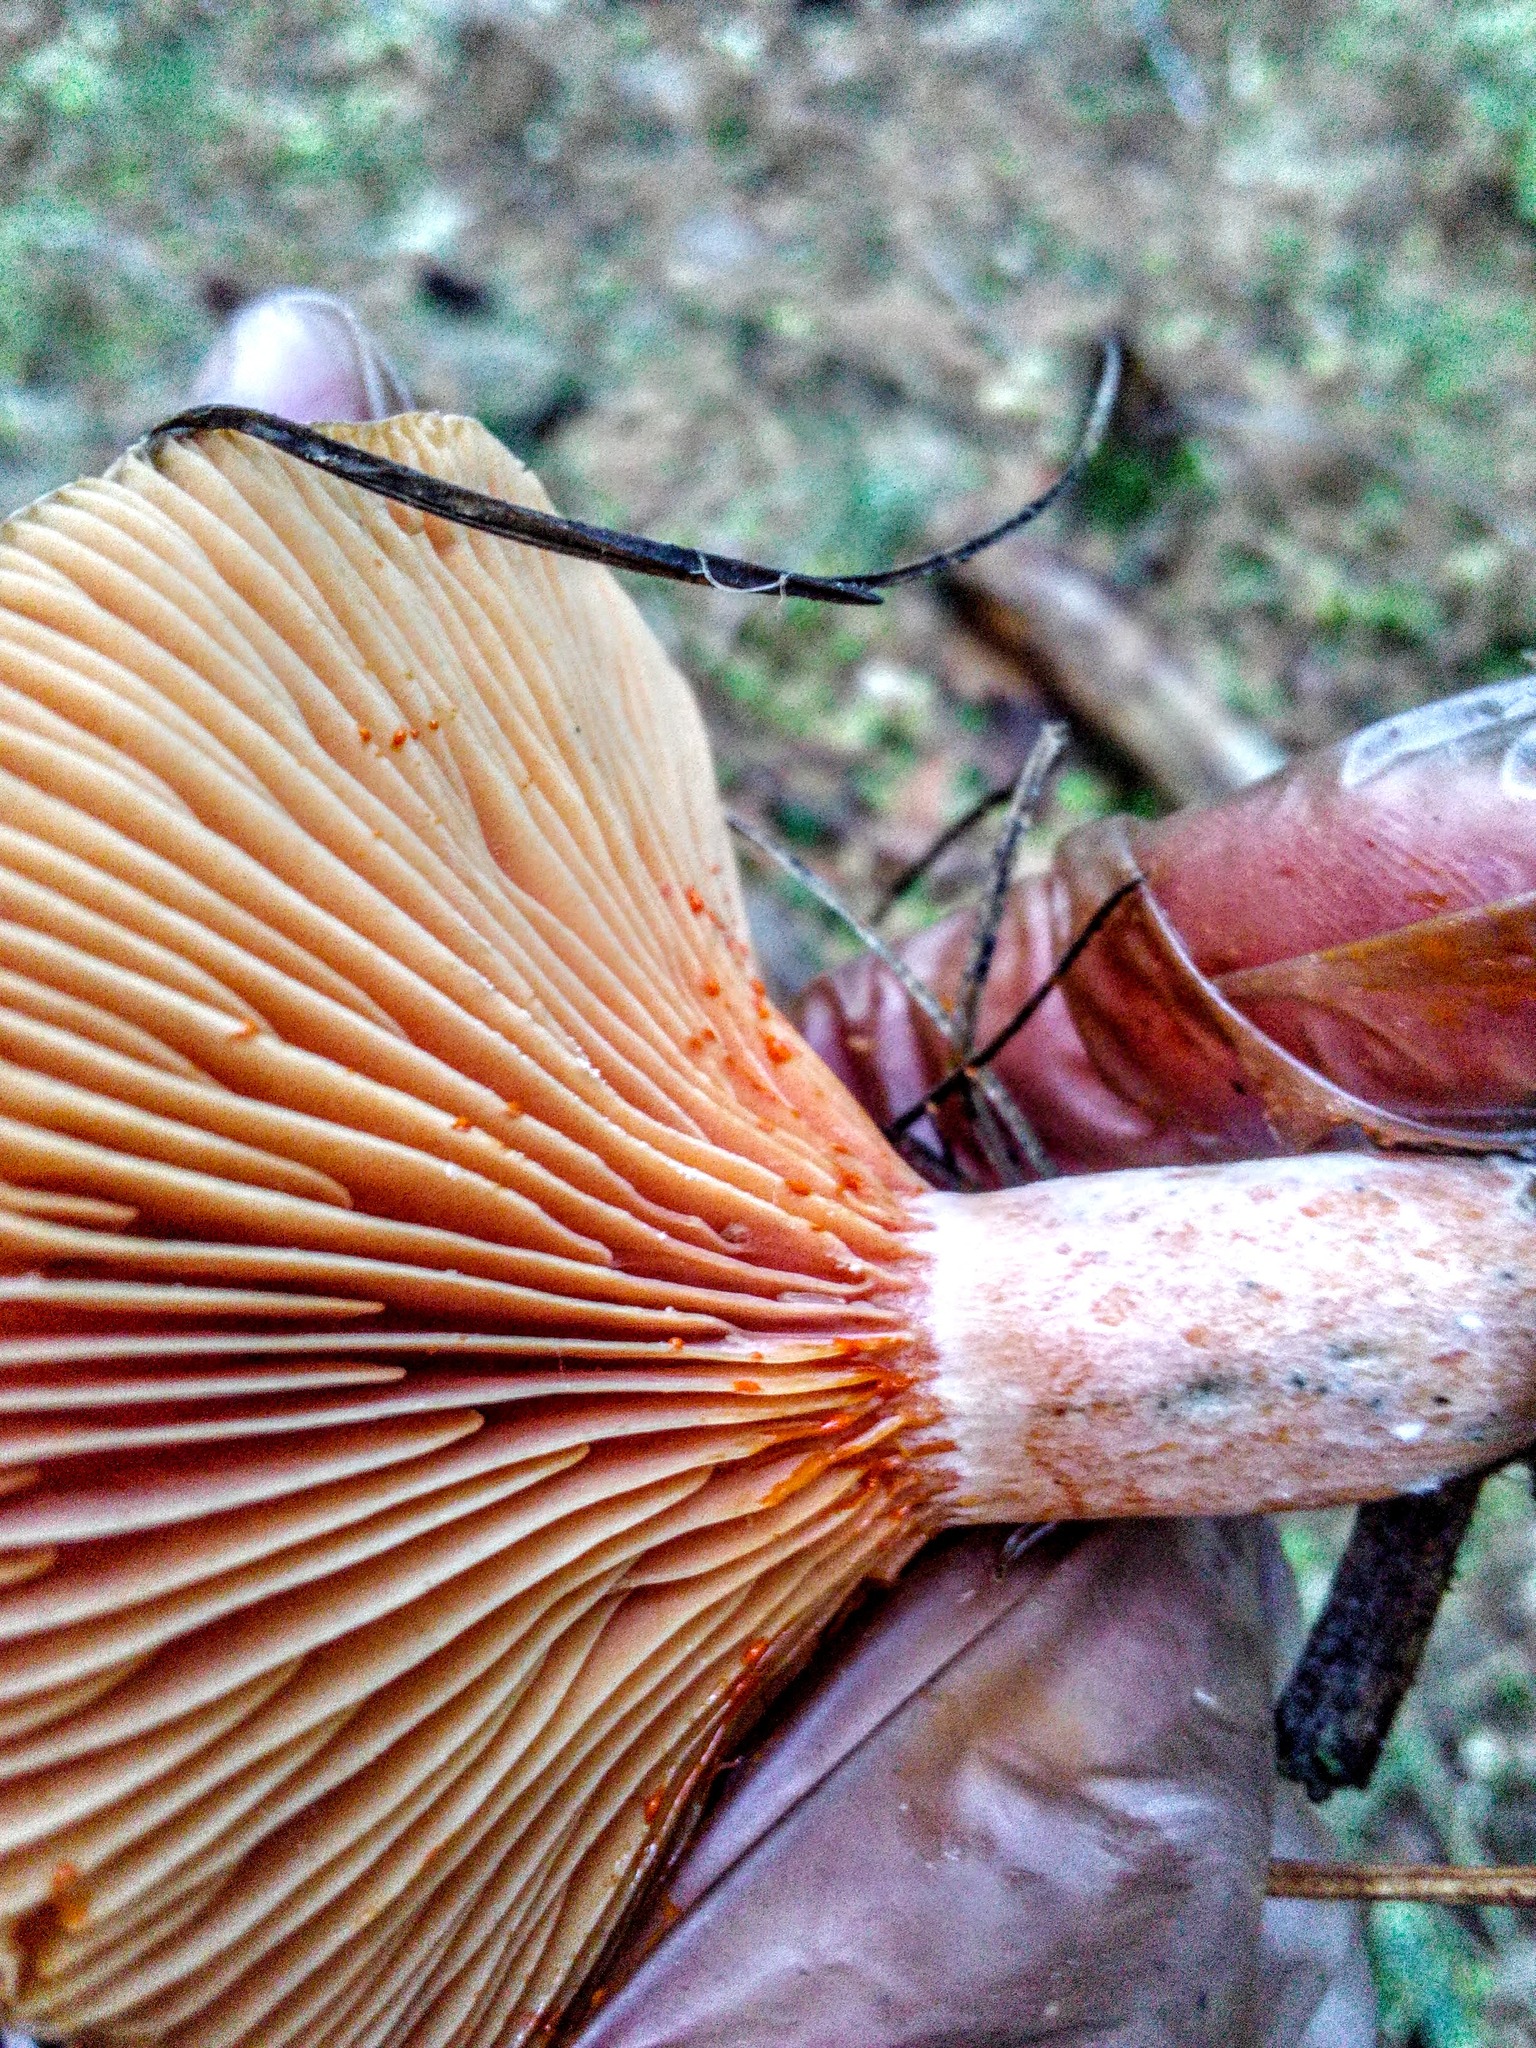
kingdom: Fungi
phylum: Basidiomycota
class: Agaricomycetes
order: Russulales
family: Russulaceae
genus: Lactarius
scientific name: Lactarius deliciosus
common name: Saffron milk-cap
